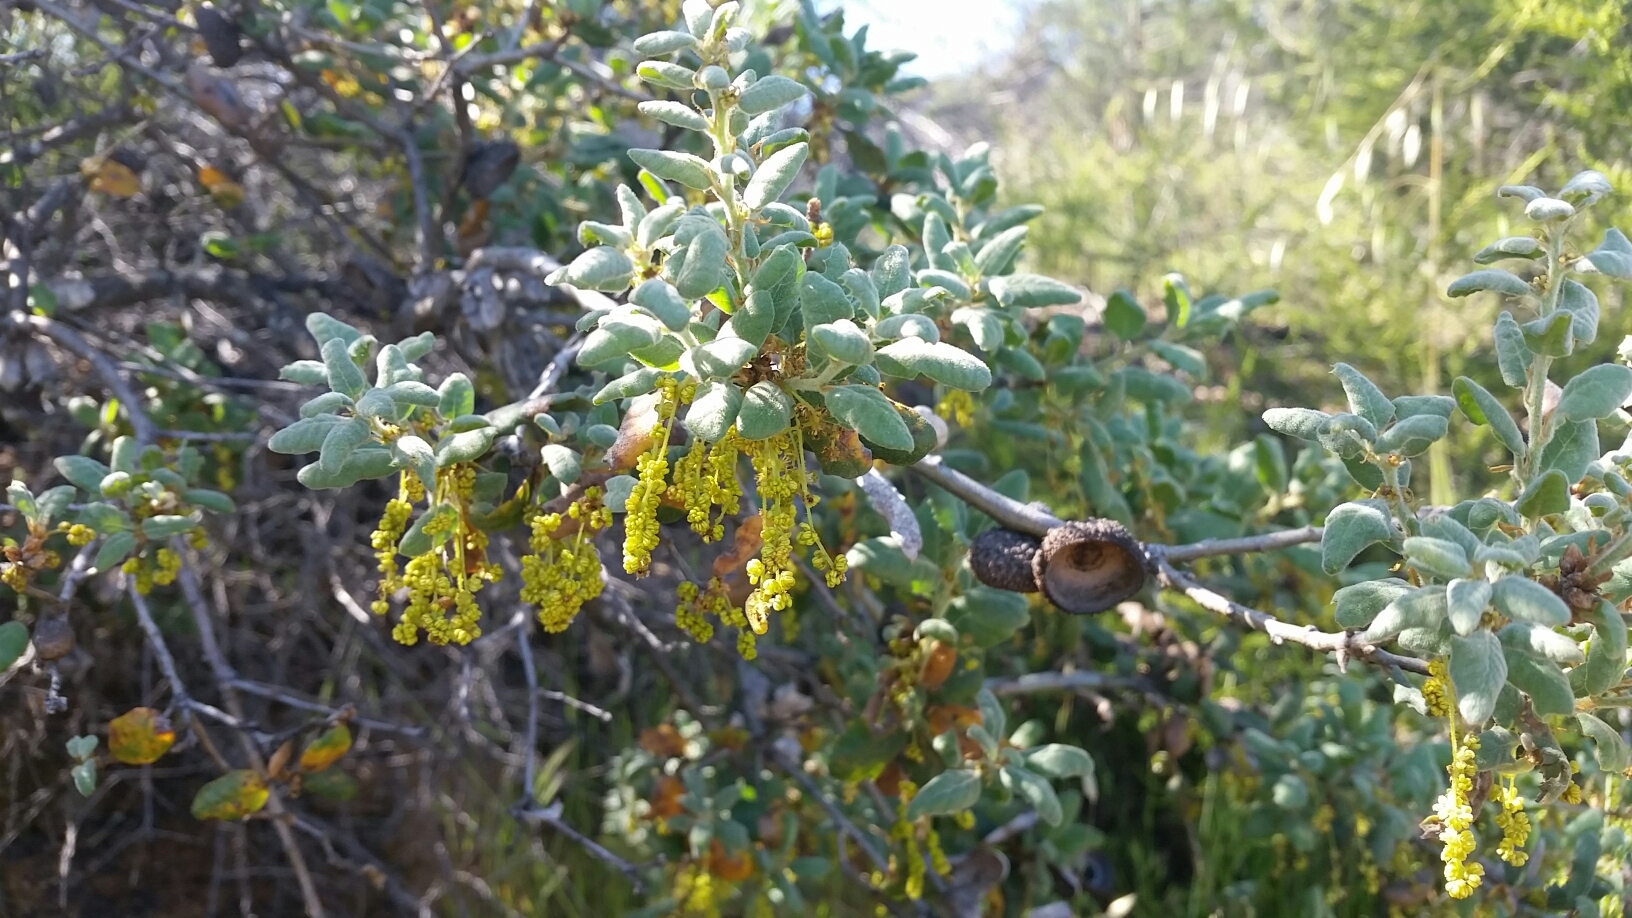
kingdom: Plantae
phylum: Tracheophyta
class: Magnoliopsida
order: Fagales
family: Fagaceae
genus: Quercus
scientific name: Quercus durata
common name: Leather oak
